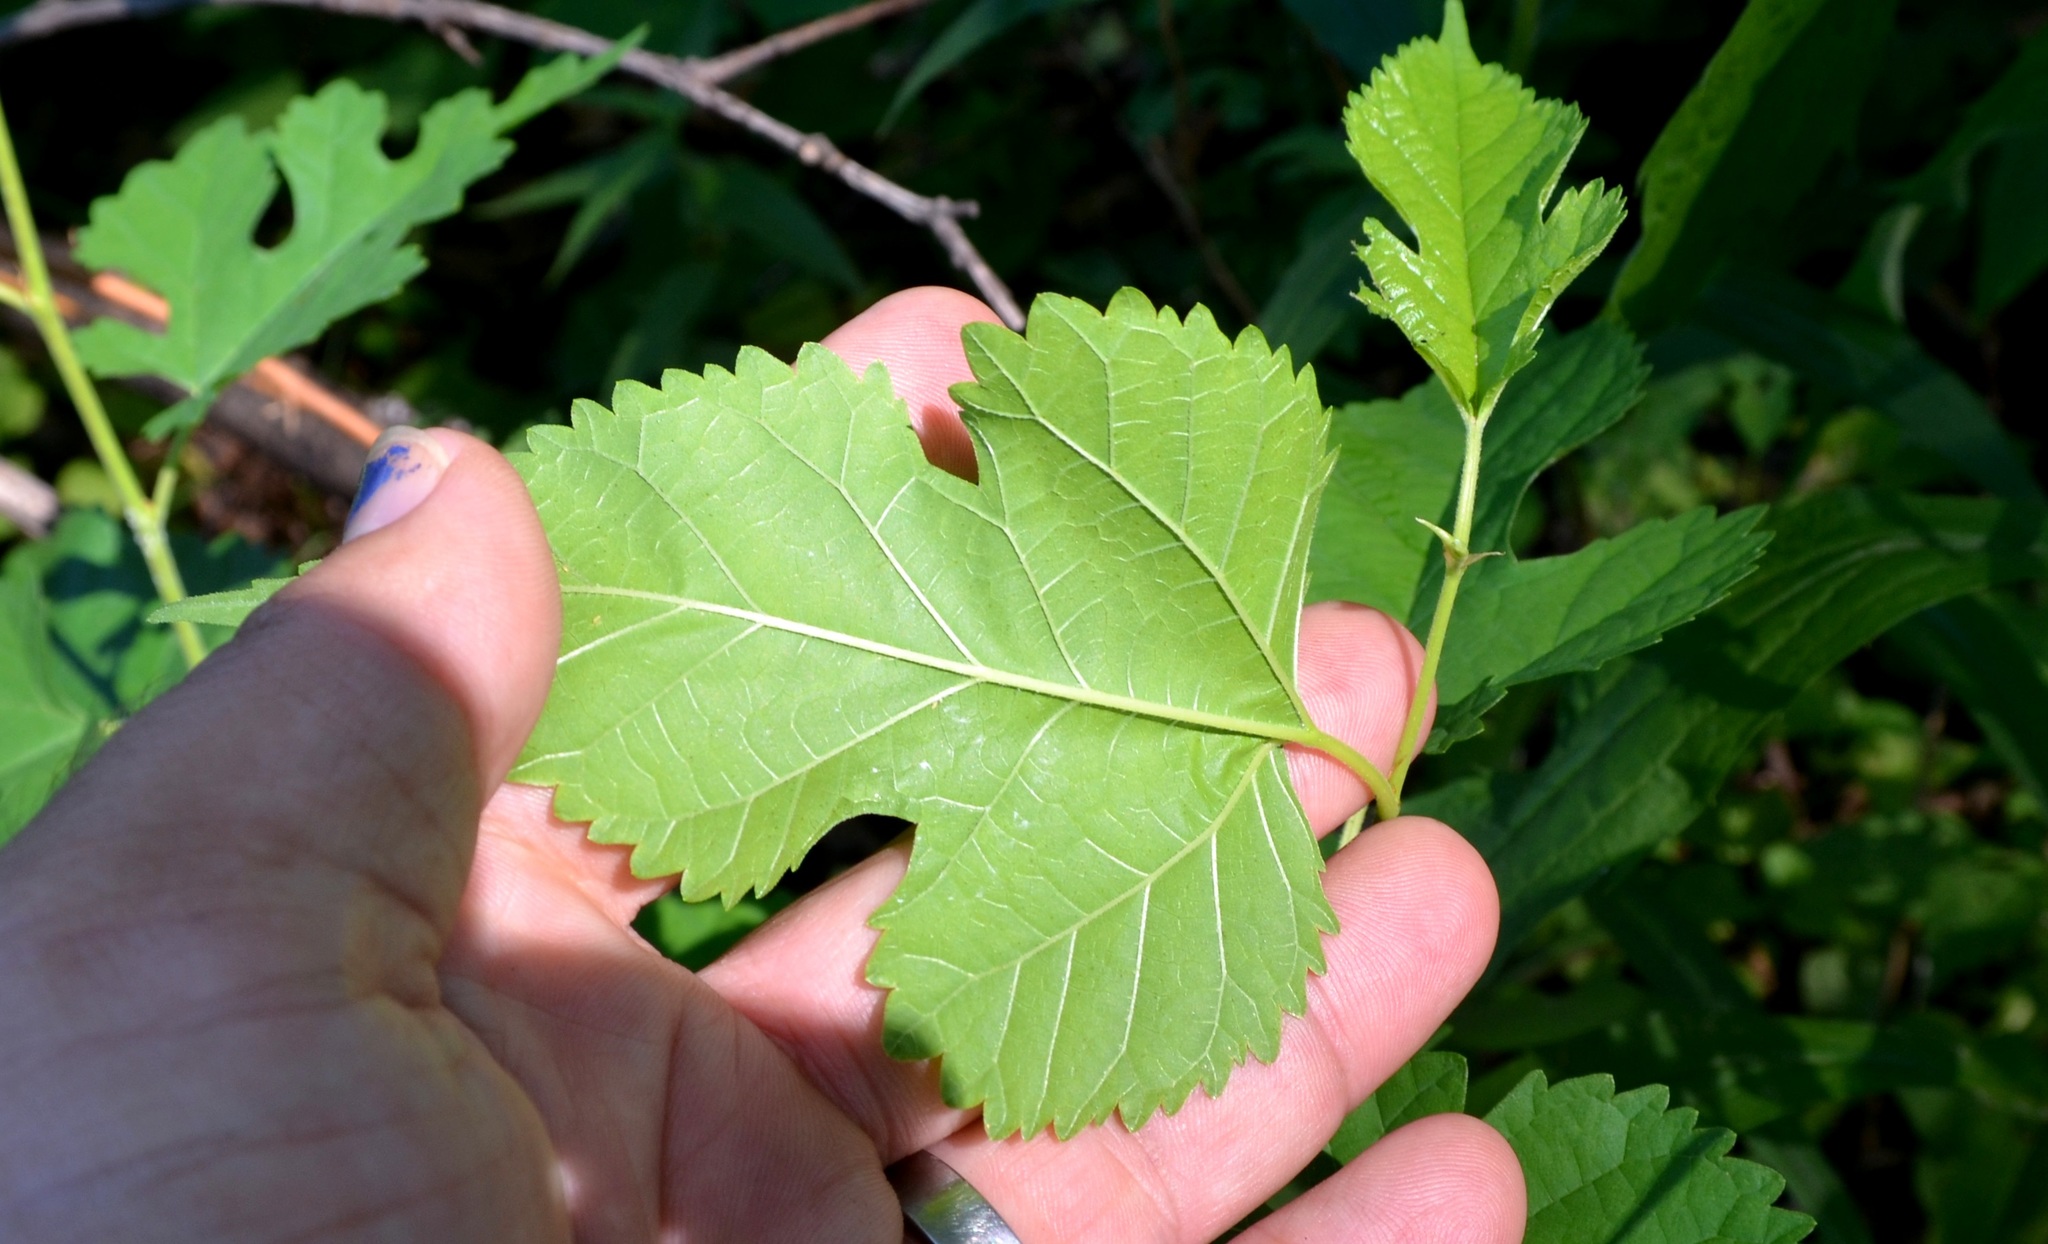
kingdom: Plantae
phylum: Tracheophyta
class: Magnoliopsida
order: Rosales
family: Moraceae
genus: Morus
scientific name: Morus alba
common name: White mulberry
